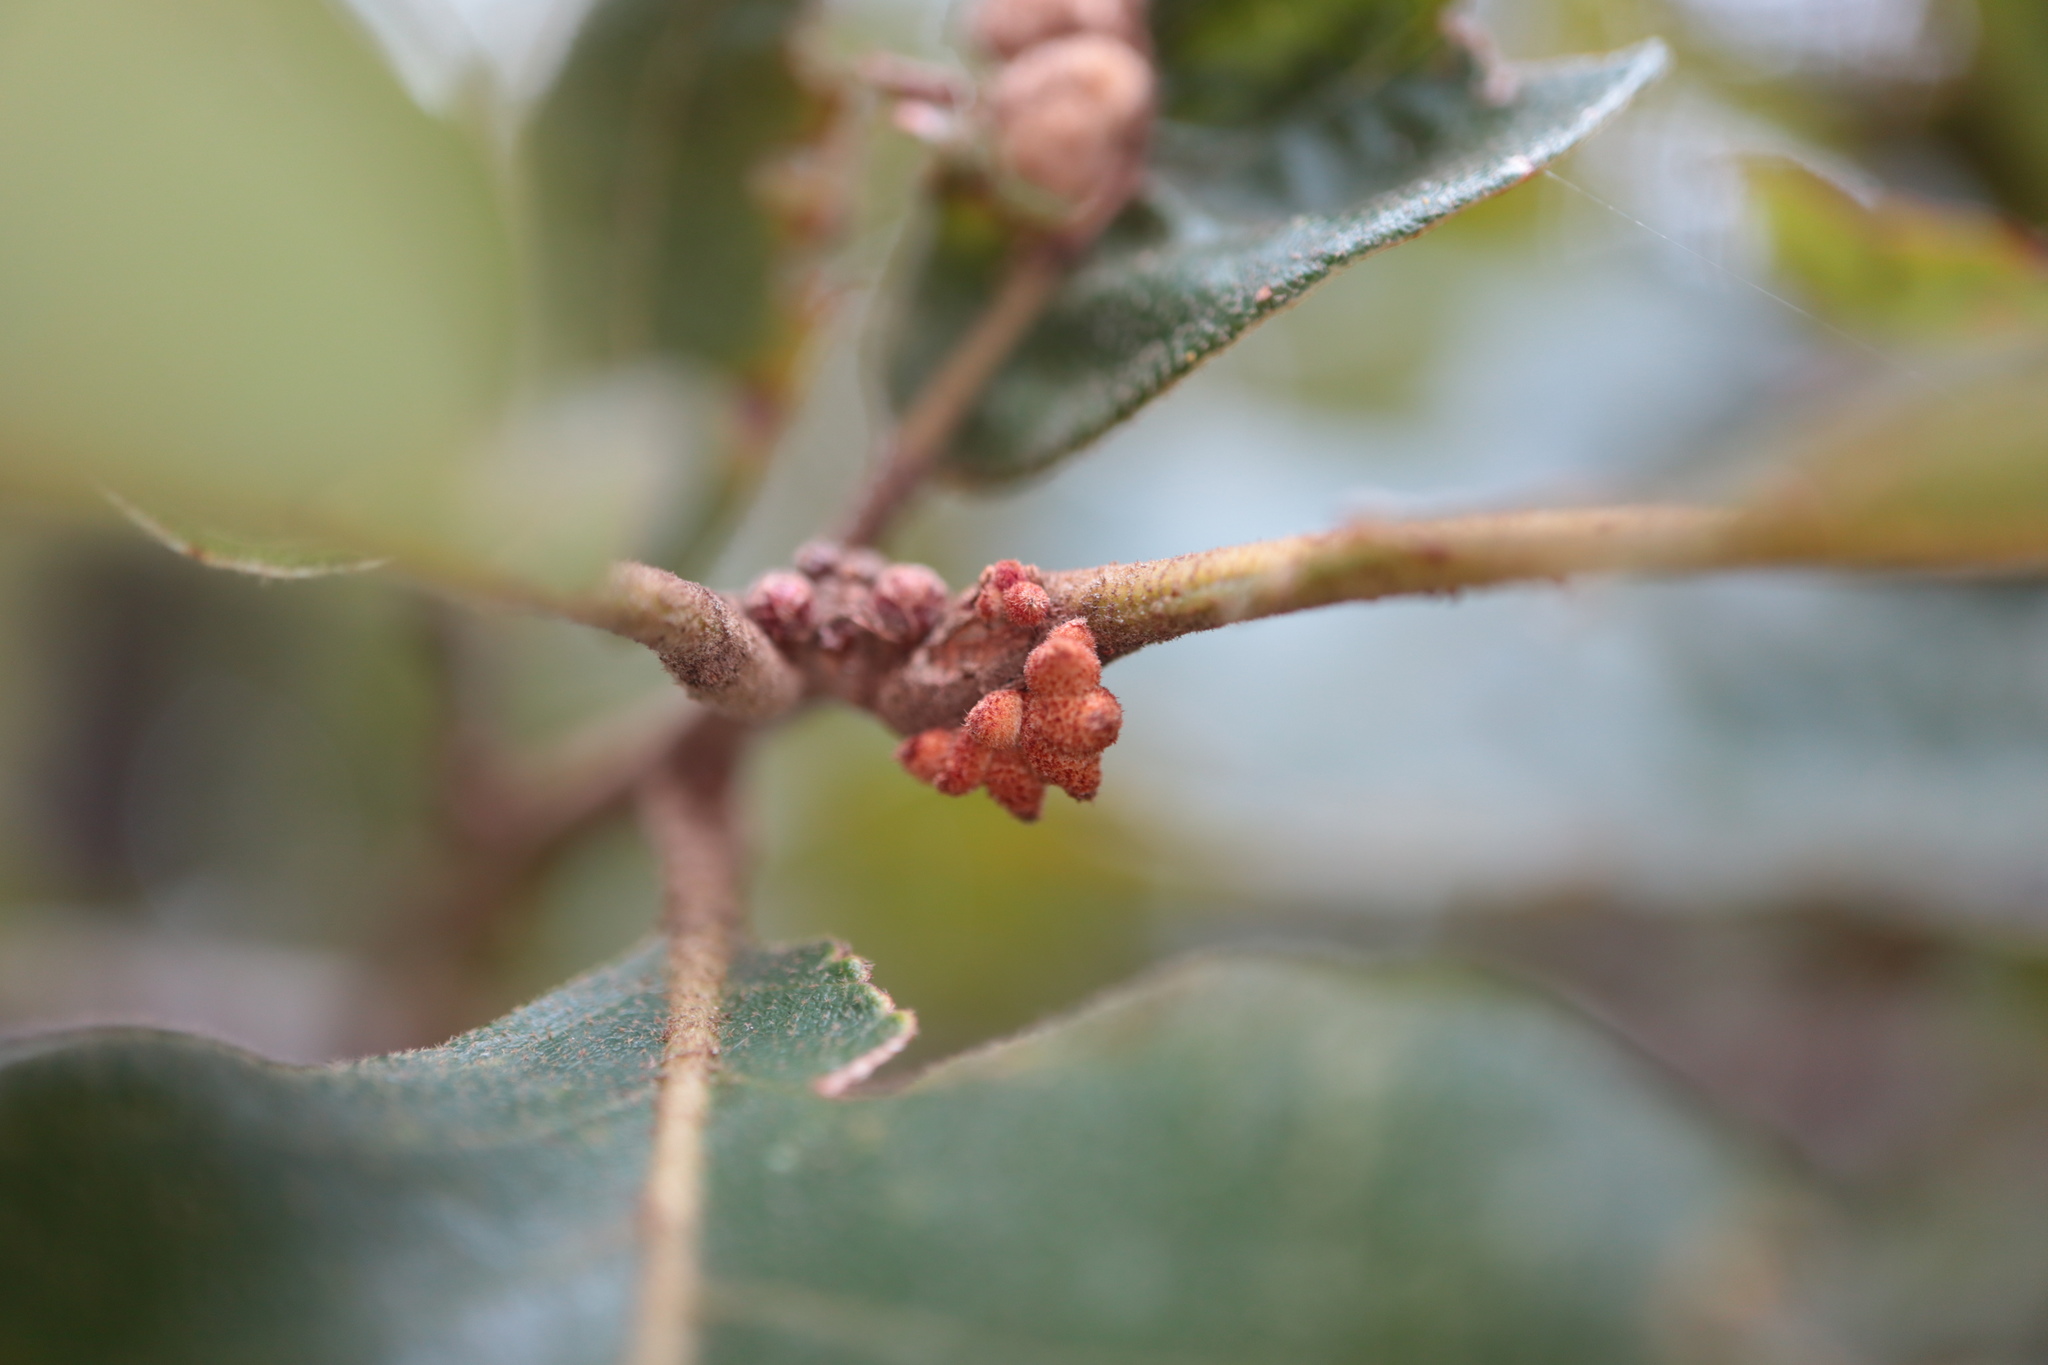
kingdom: Animalia
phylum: Arthropoda
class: Insecta
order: Hymenoptera
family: Cynipidae
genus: Andricus
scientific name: Andricus
